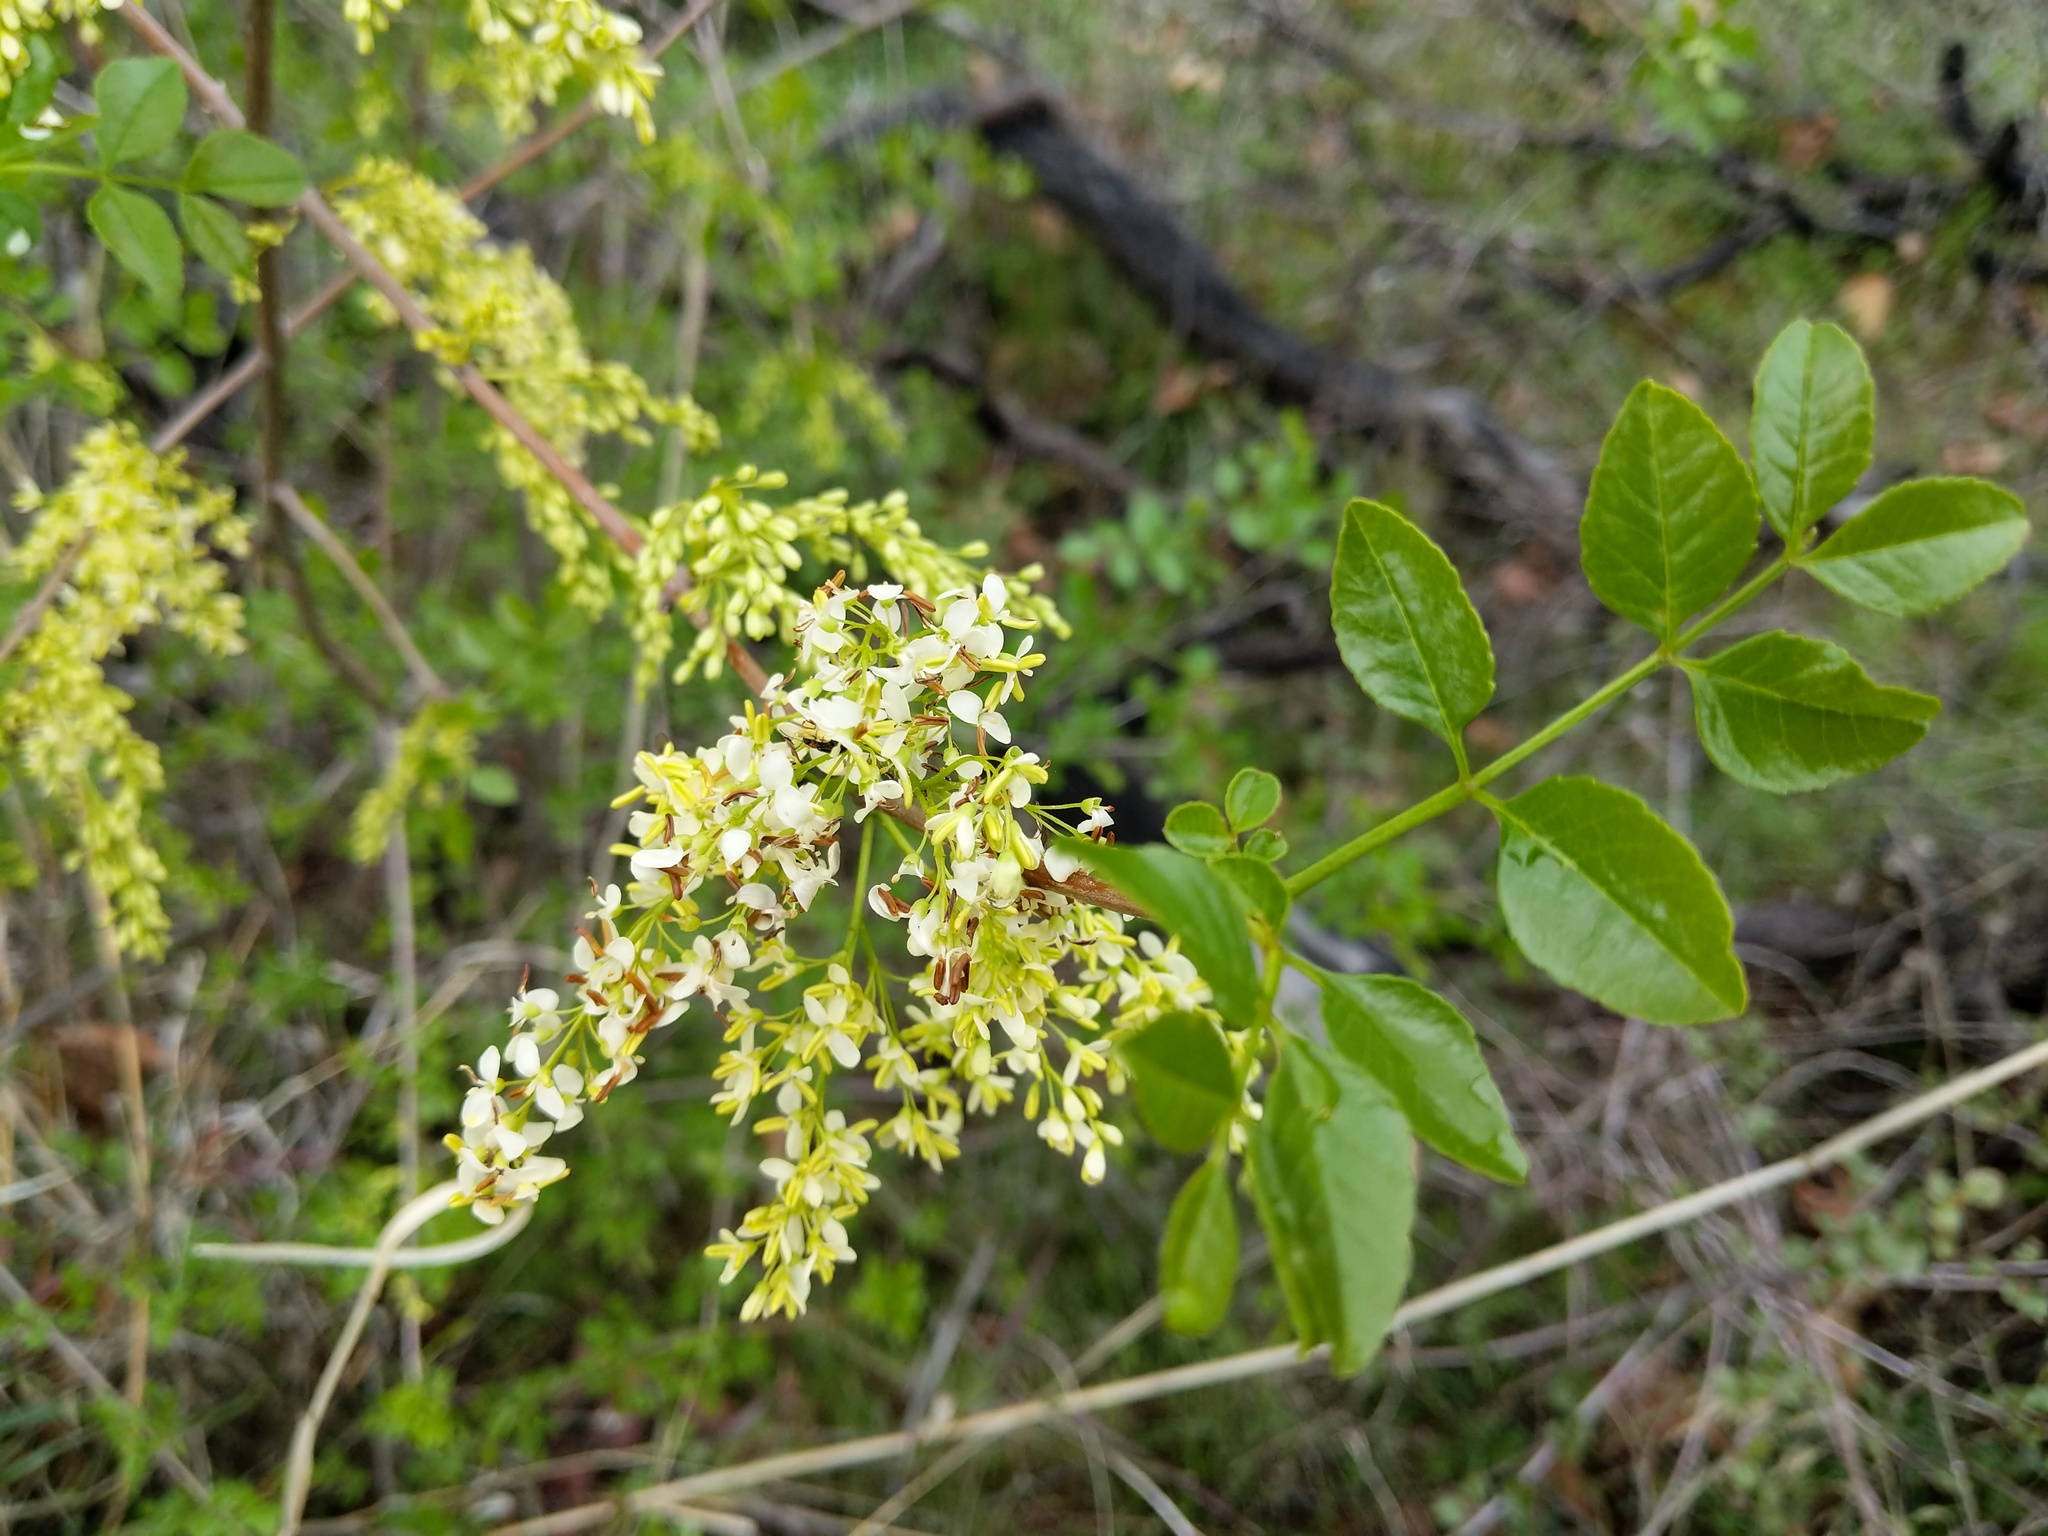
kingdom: Plantae
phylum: Tracheophyta
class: Magnoliopsida
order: Lamiales
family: Oleaceae
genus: Fraxinus
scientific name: Fraxinus dipetala
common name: California ash
